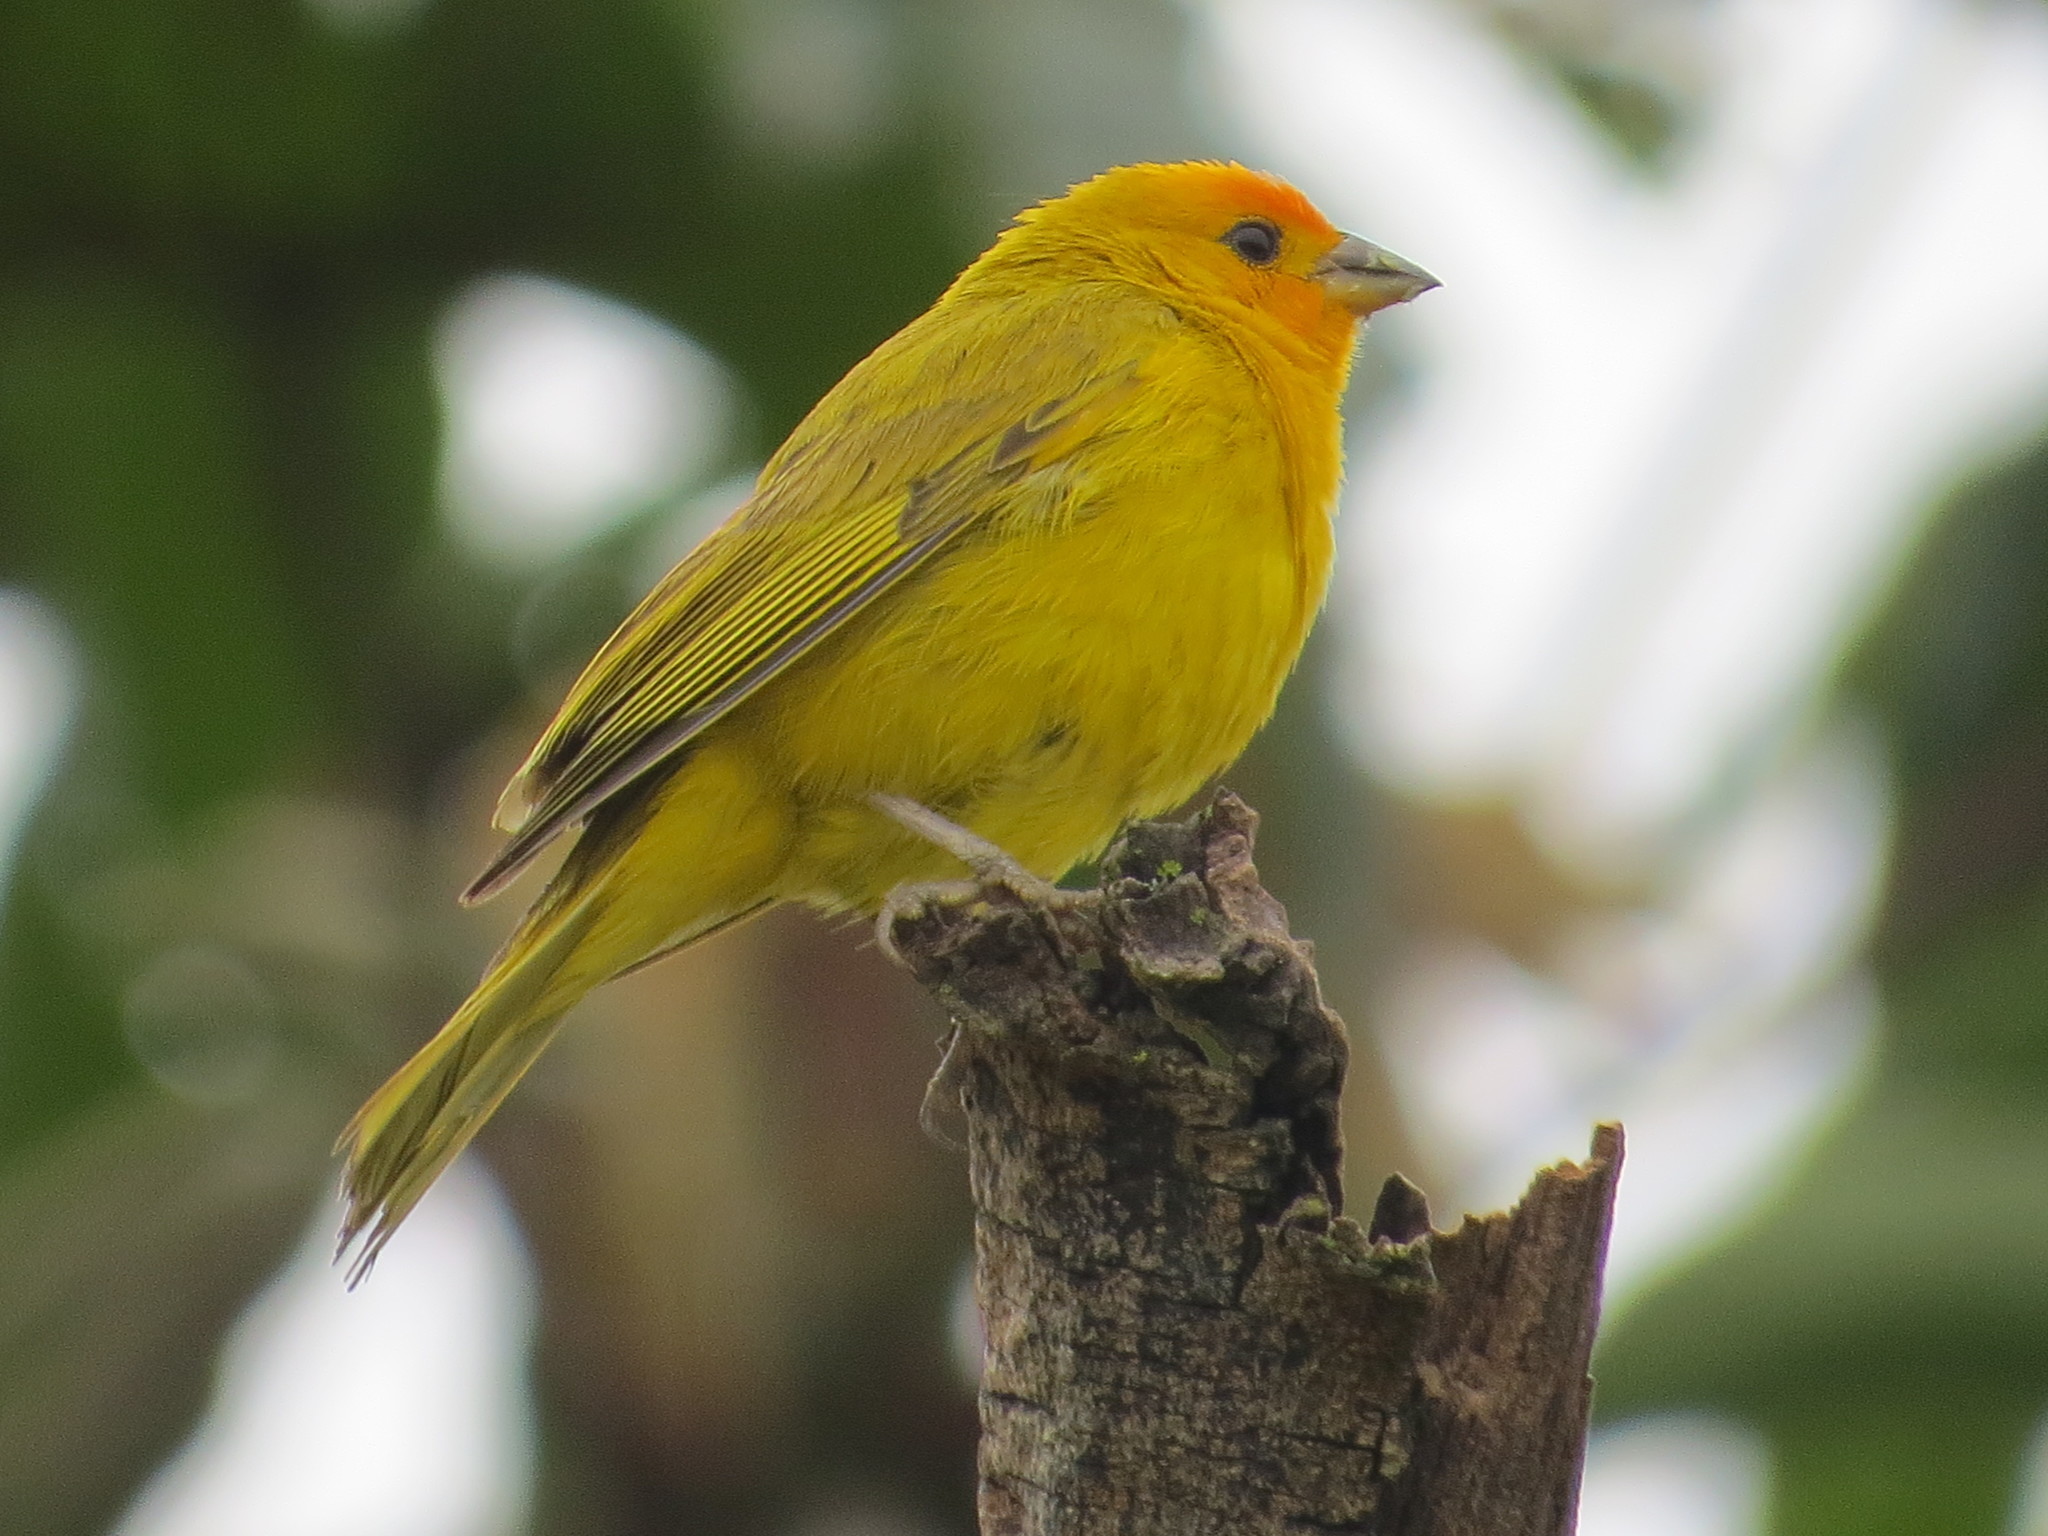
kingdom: Animalia
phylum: Chordata
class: Aves
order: Passeriformes
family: Thraupidae
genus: Sicalis
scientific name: Sicalis flaveola
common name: Saffron finch
